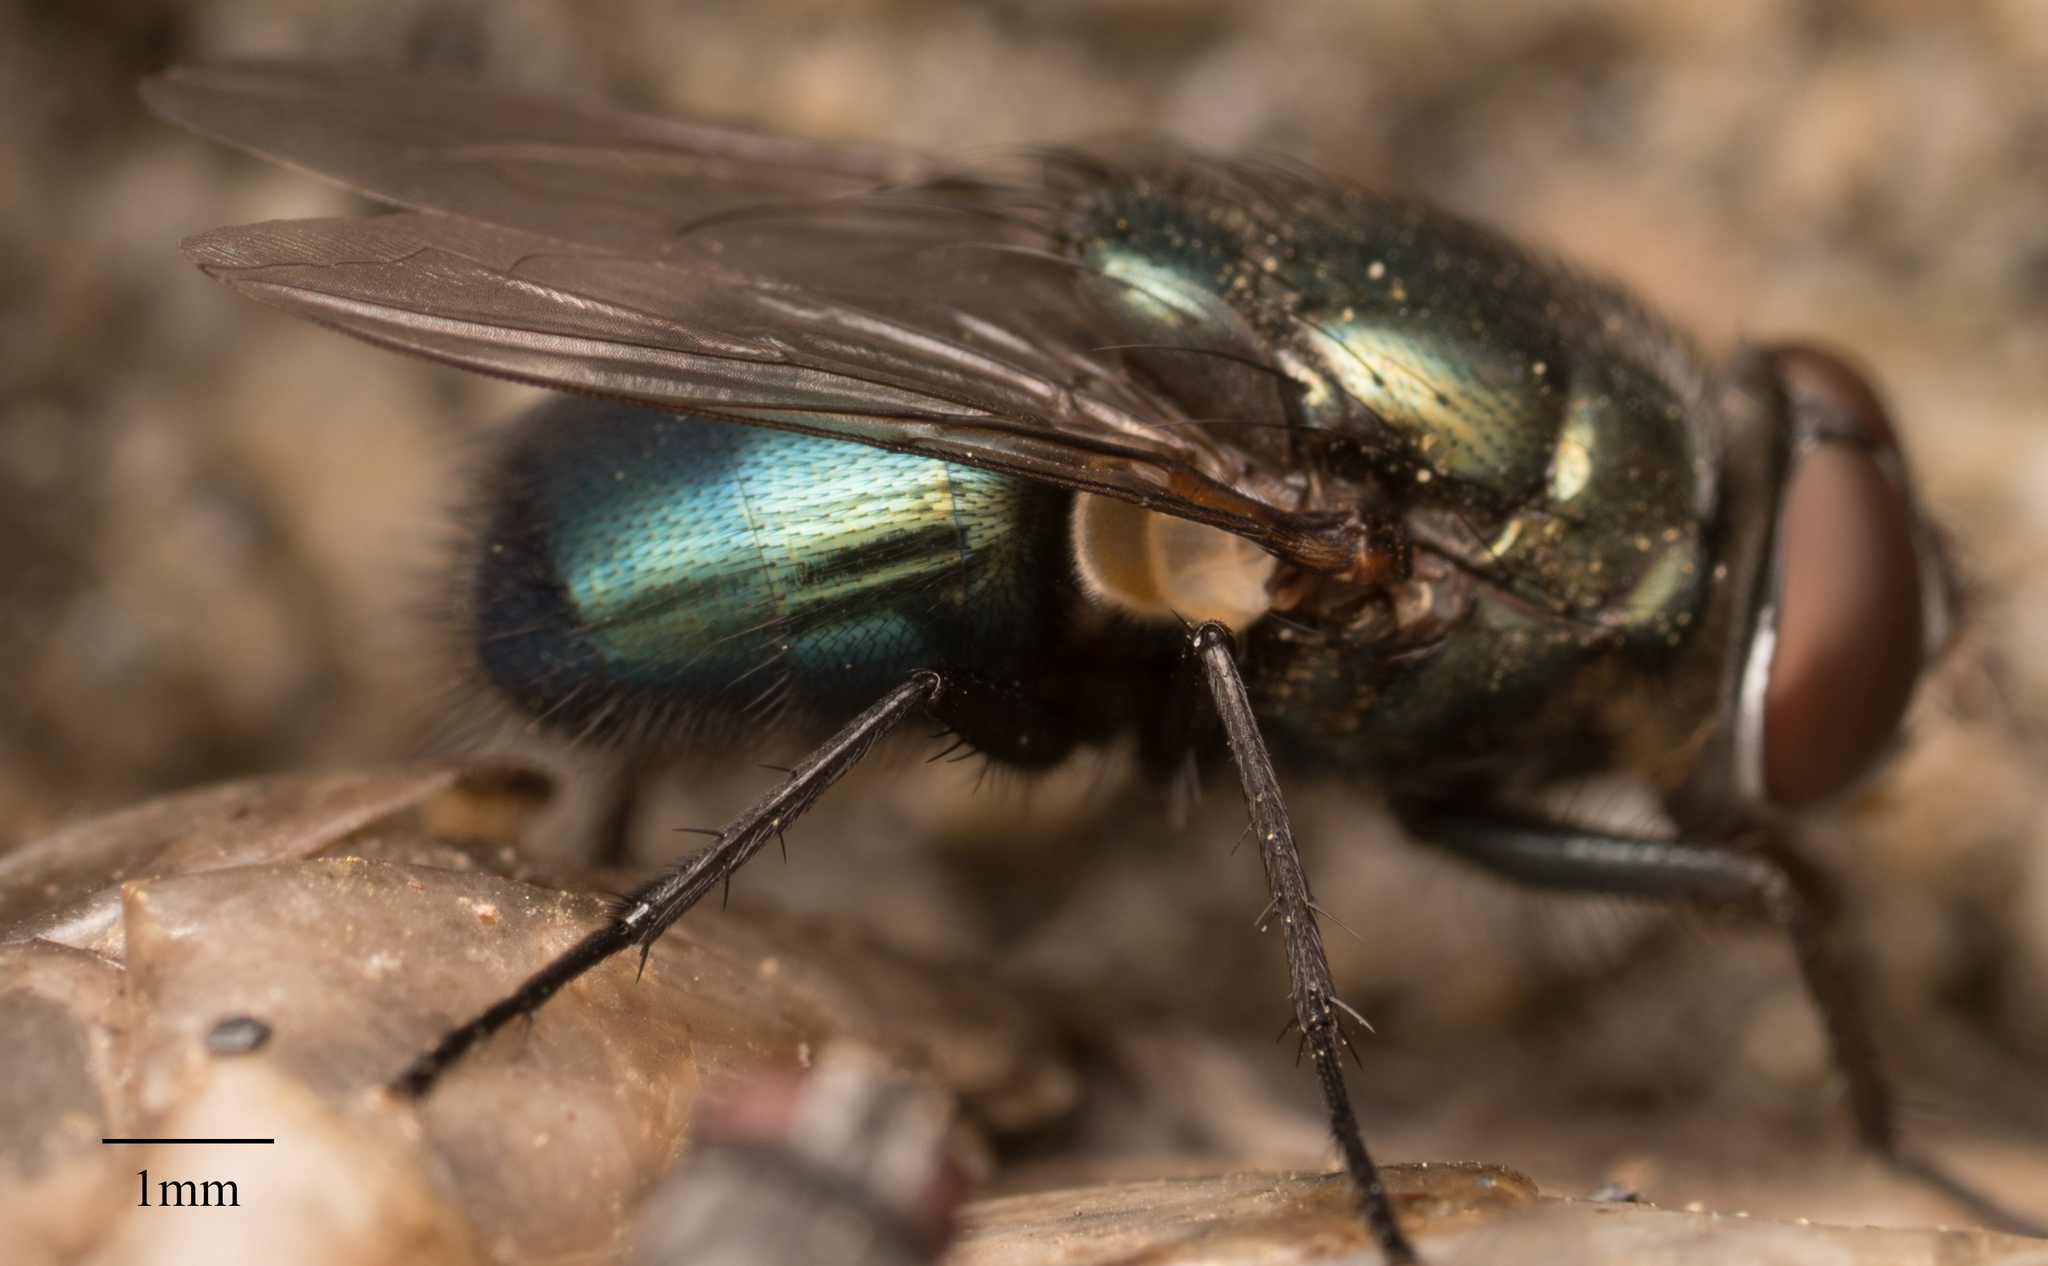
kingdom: Animalia
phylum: Arthropoda
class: Insecta
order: Diptera
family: Calliphoridae
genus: Phormia
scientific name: Phormia regina
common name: Black blow fly
